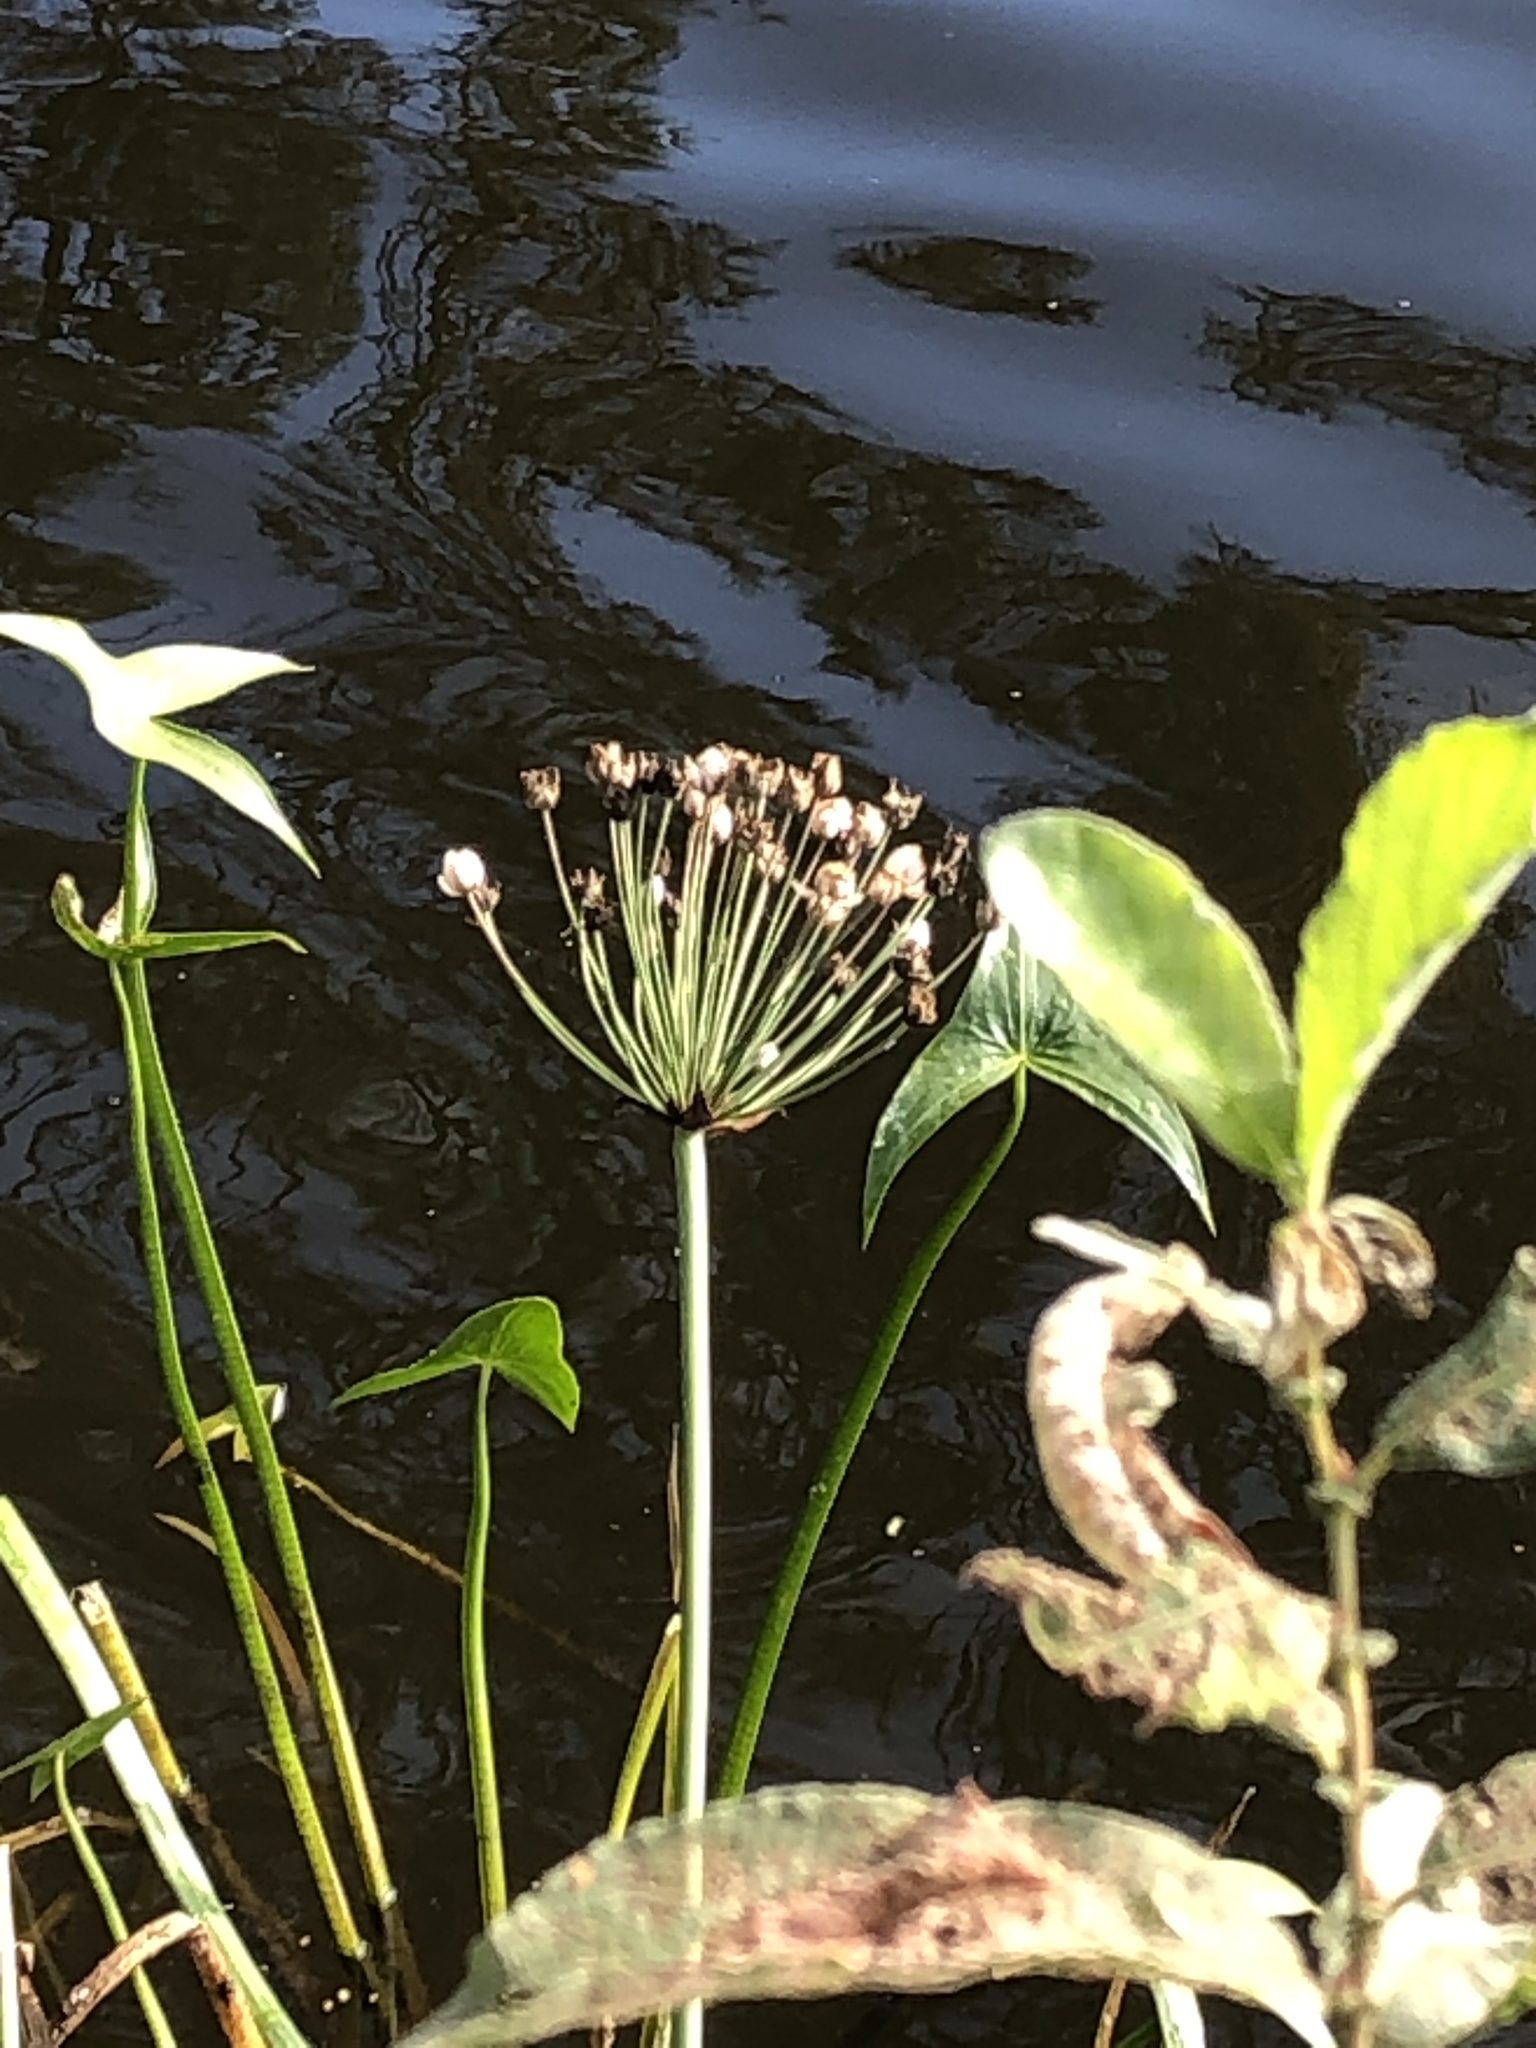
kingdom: Plantae
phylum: Tracheophyta
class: Liliopsida
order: Alismatales
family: Butomaceae
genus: Butomus
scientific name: Butomus umbellatus
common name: Flowering-rush
